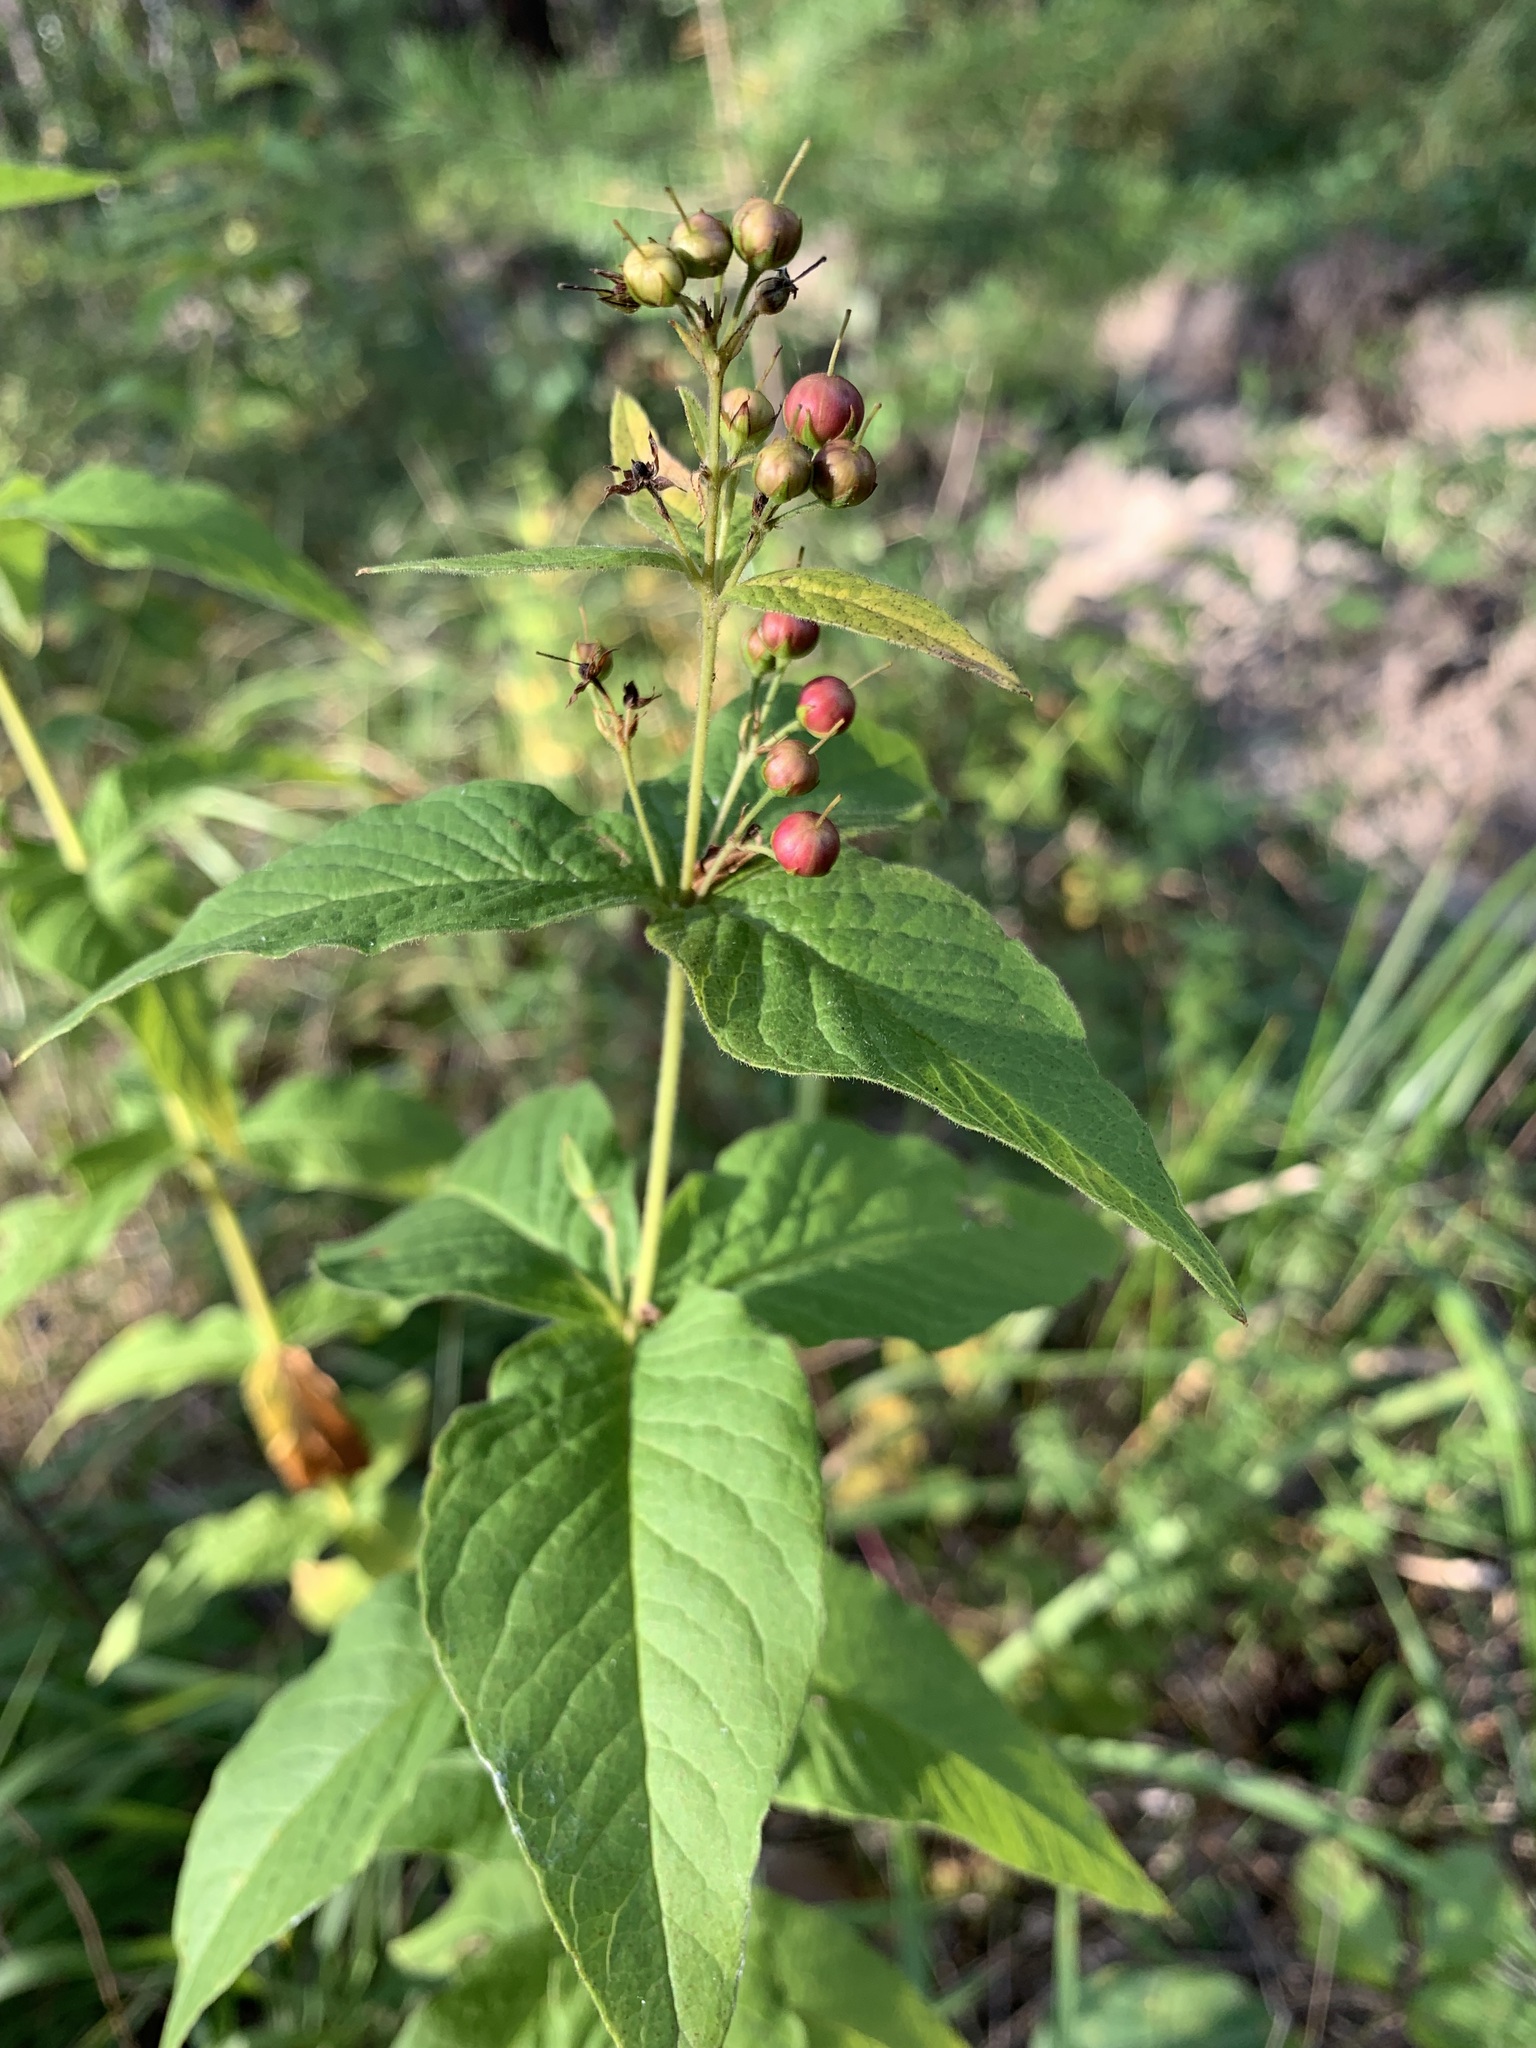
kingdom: Plantae
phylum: Tracheophyta
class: Magnoliopsida
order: Ericales
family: Primulaceae
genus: Lysimachia
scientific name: Lysimachia vulgaris
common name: Yellow loosestrife
